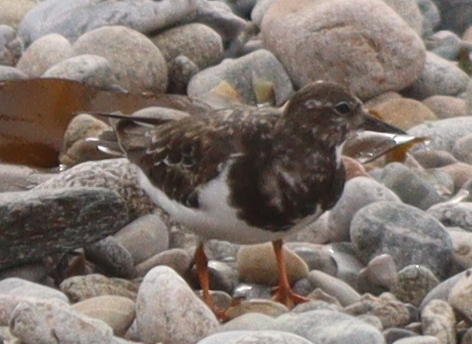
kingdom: Animalia
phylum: Chordata
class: Aves
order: Charadriiformes
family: Scolopacidae
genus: Arenaria
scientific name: Arenaria interpres
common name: Ruddy turnstone
